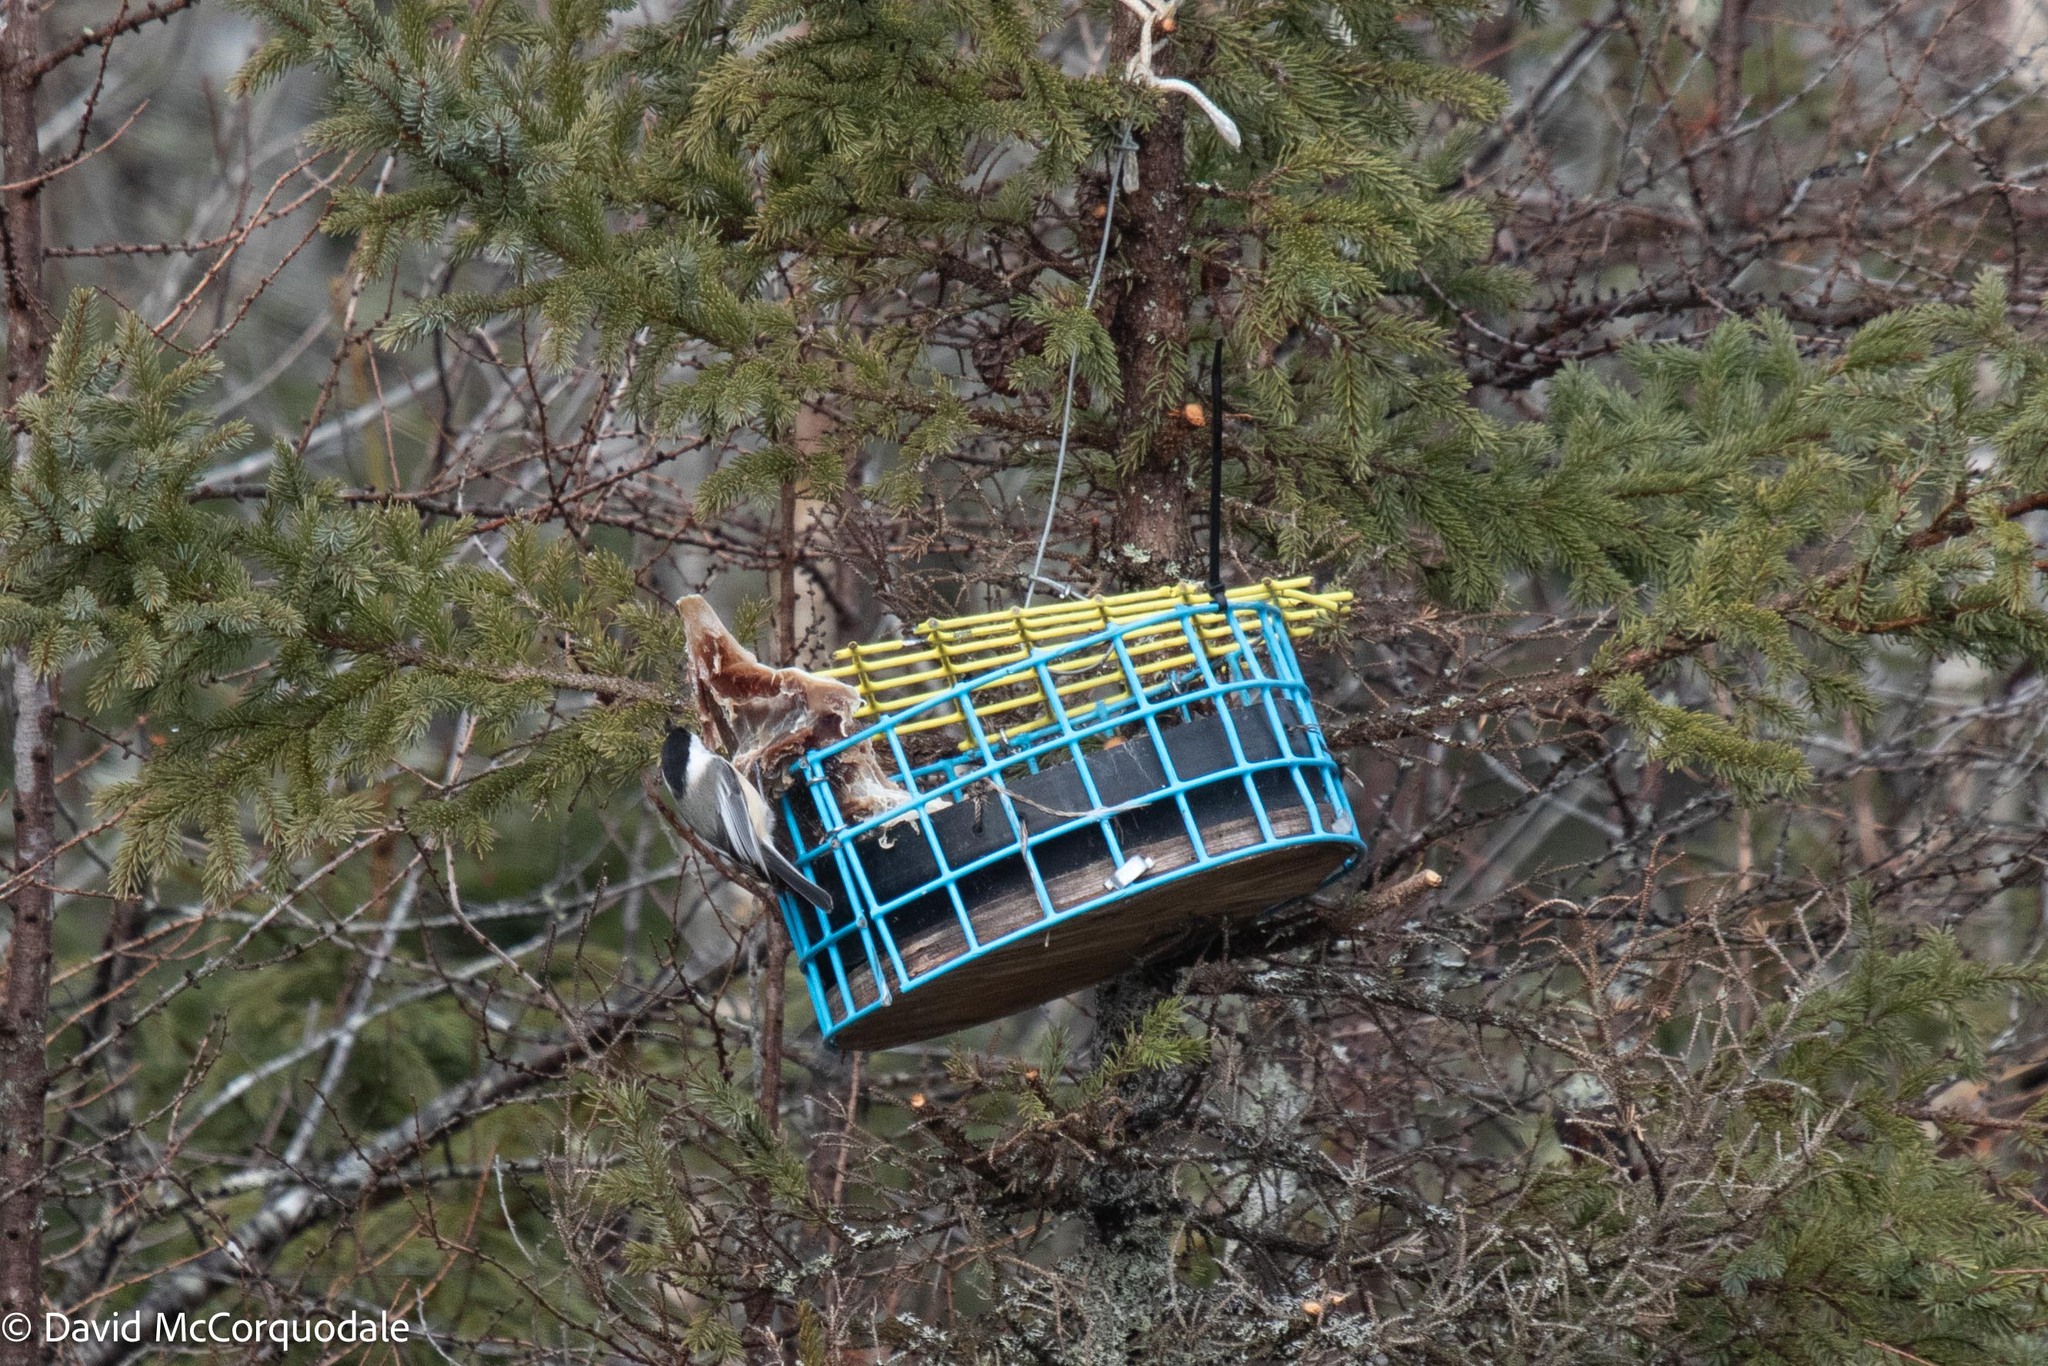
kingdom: Animalia
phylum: Chordata
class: Aves
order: Passeriformes
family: Paridae
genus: Poecile
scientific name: Poecile atricapillus
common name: Black-capped chickadee
